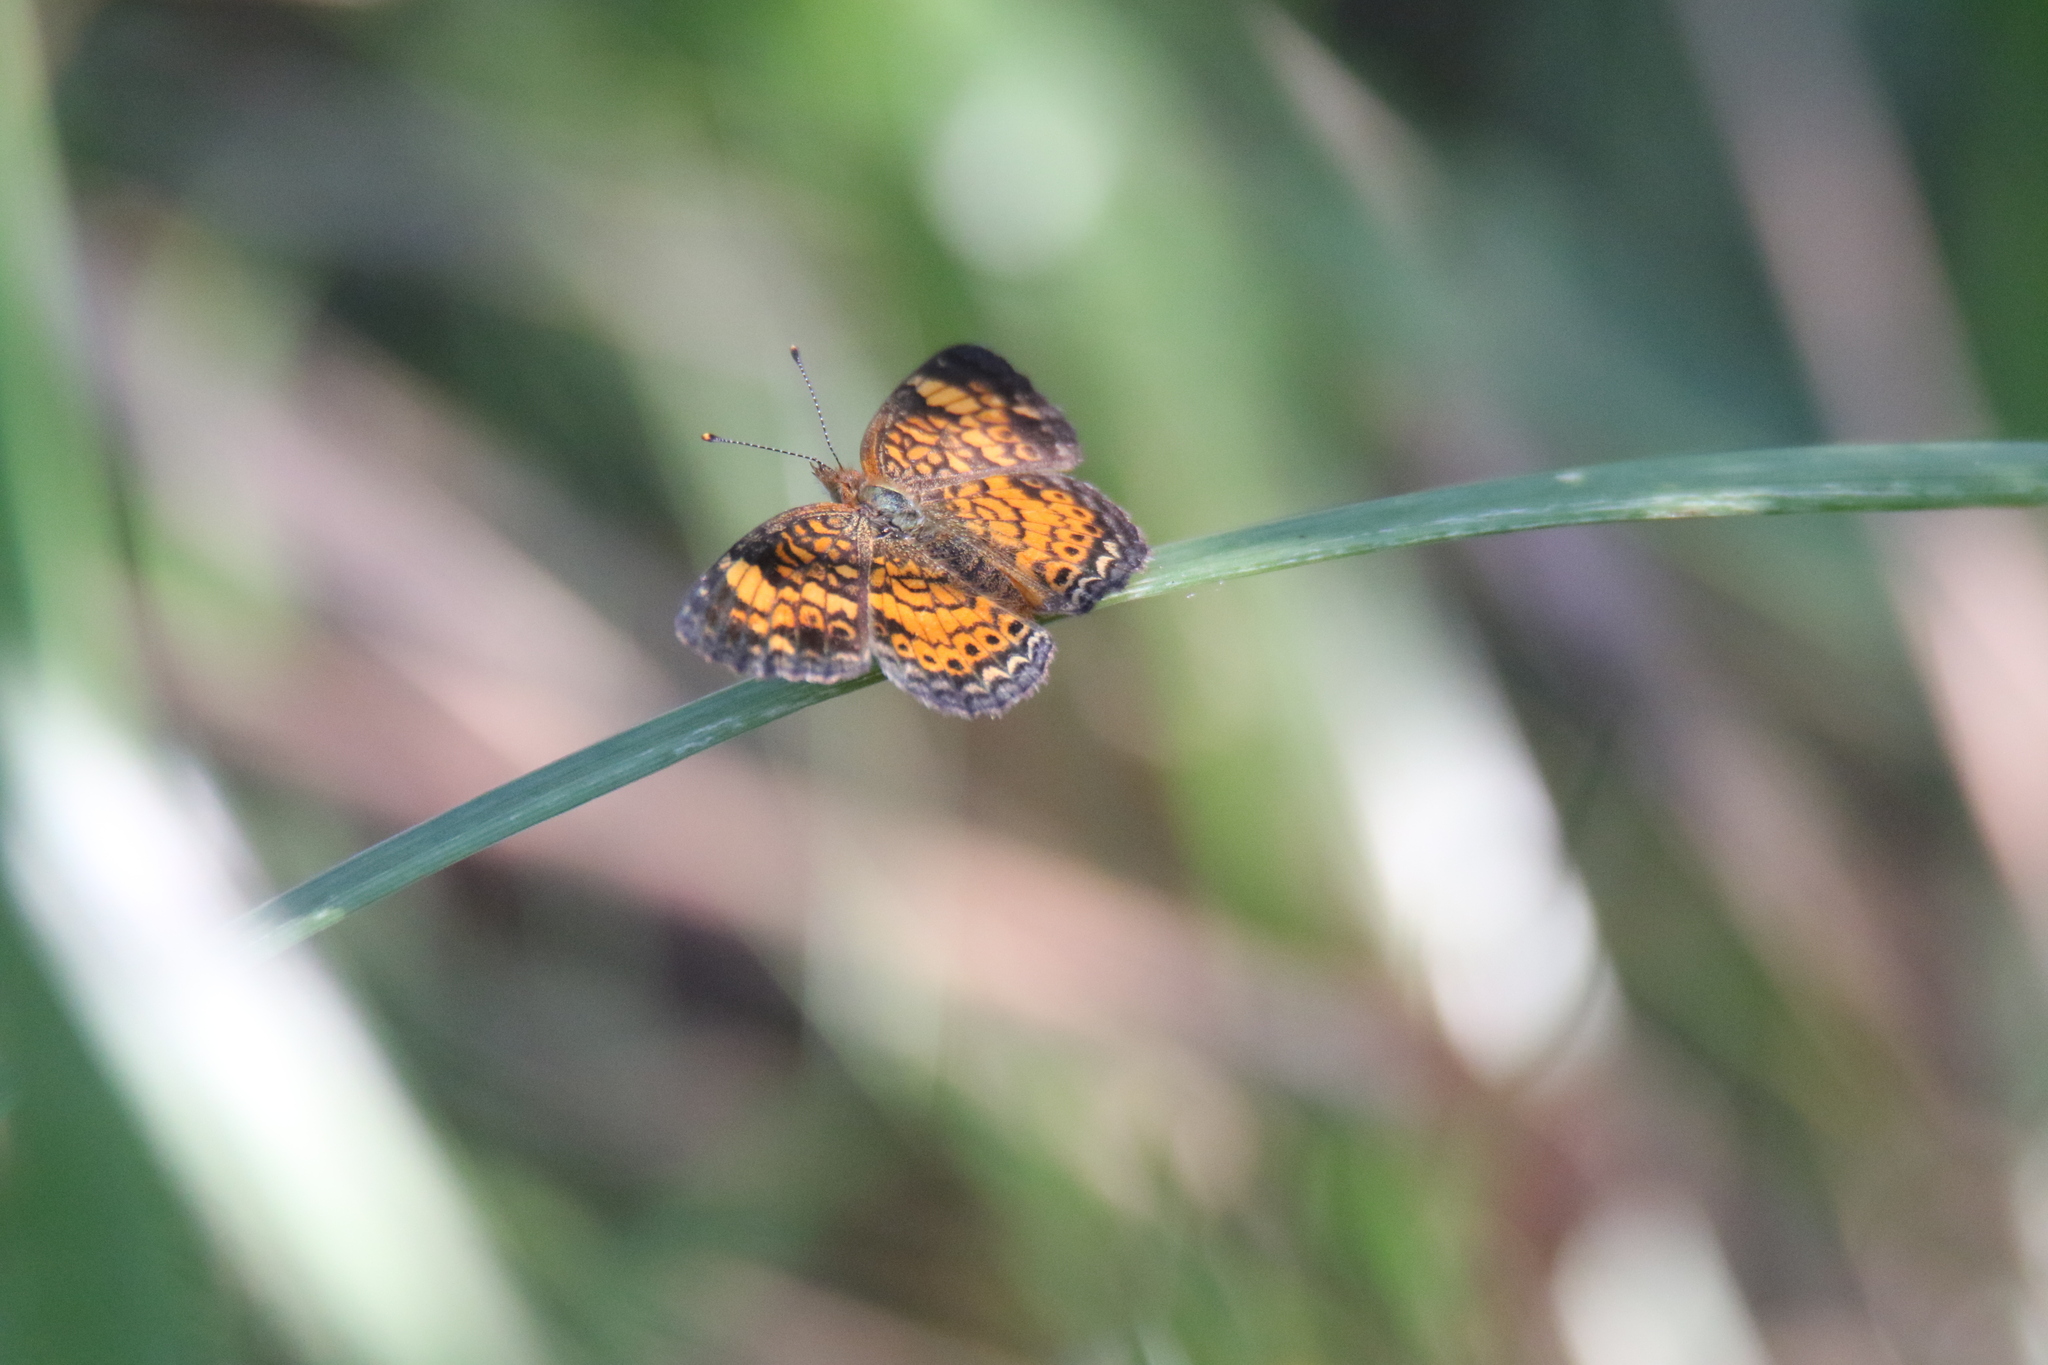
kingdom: Animalia
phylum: Arthropoda
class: Insecta
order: Lepidoptera
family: Nymphalidae
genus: Phyciodes
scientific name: Phyciodes tharos
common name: Pearl crescent
